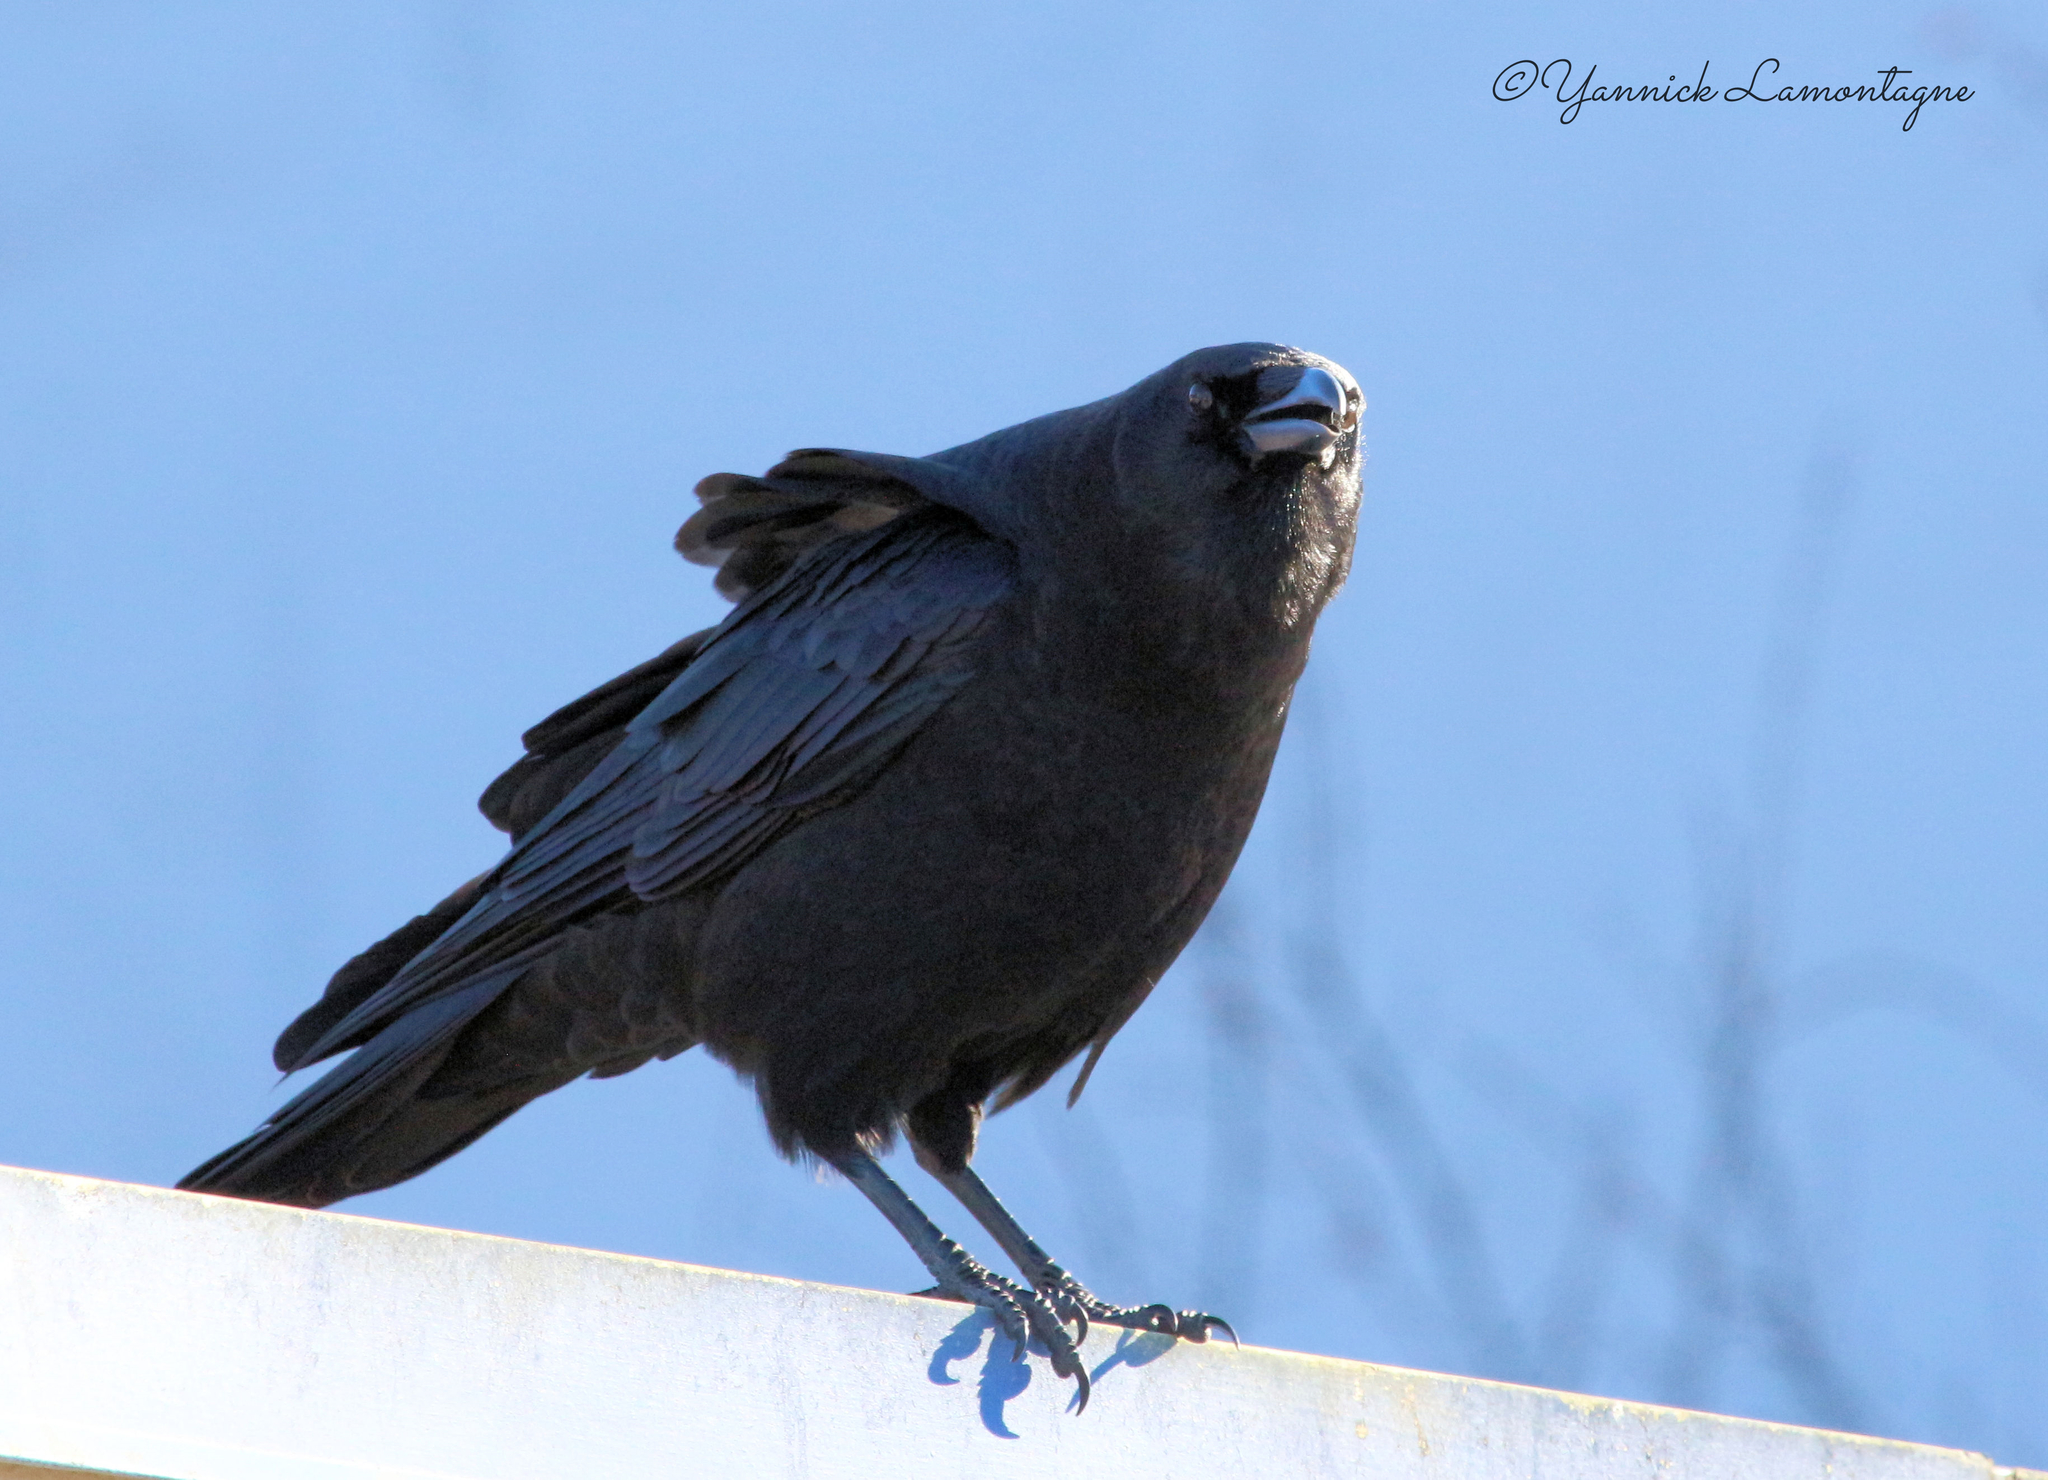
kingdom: Animalia
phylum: Chordata
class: Aves
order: Passeriformes
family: Corvidae
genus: Corvus
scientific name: Corvus brachyrhynchos
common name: American crow
